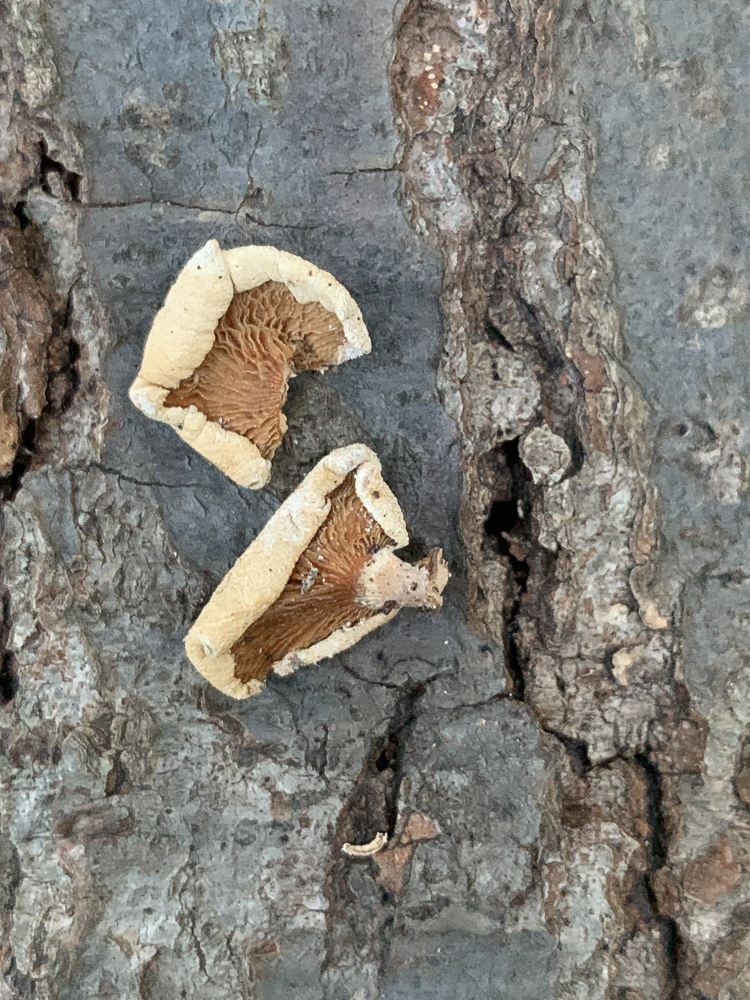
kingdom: Fungi
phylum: Basidiomycota
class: Agaricomycetes
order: Agaricales
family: Mycenaceae
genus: Panellus
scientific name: Panellus stipticus
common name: Bitter oysterling
